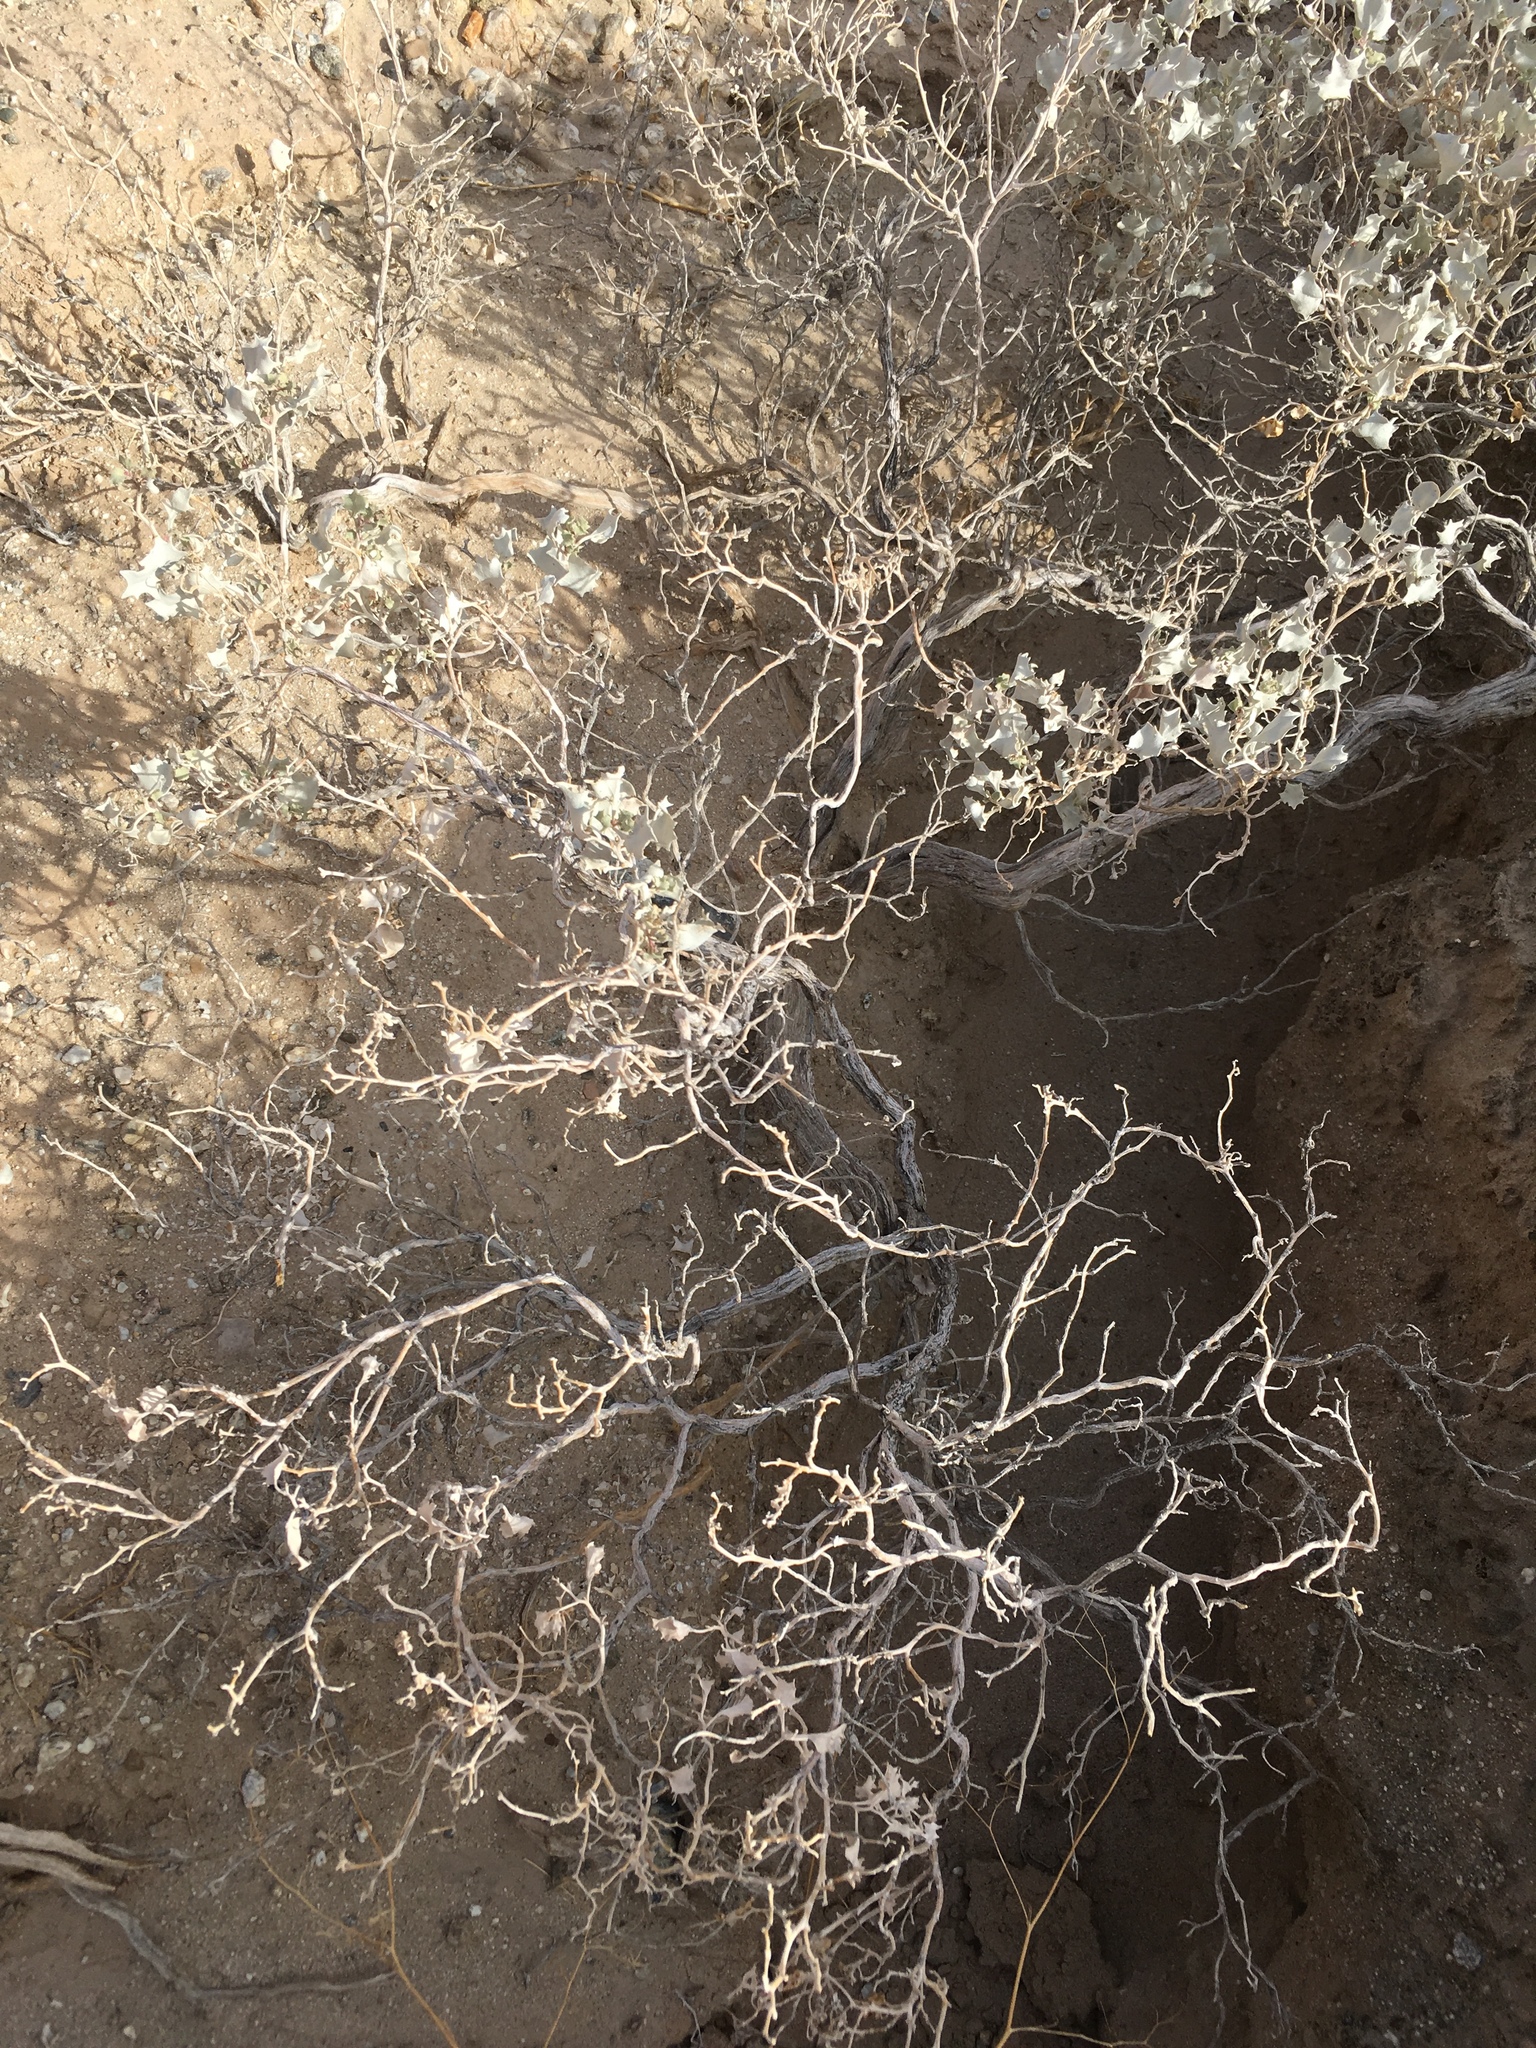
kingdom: Plantae
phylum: Tracheophyta
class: Magnoliopsida
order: Caryophyllales
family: Amaranthaceae
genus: Atriplex
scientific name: Atriplex hymenelytra
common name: Desert-holly
